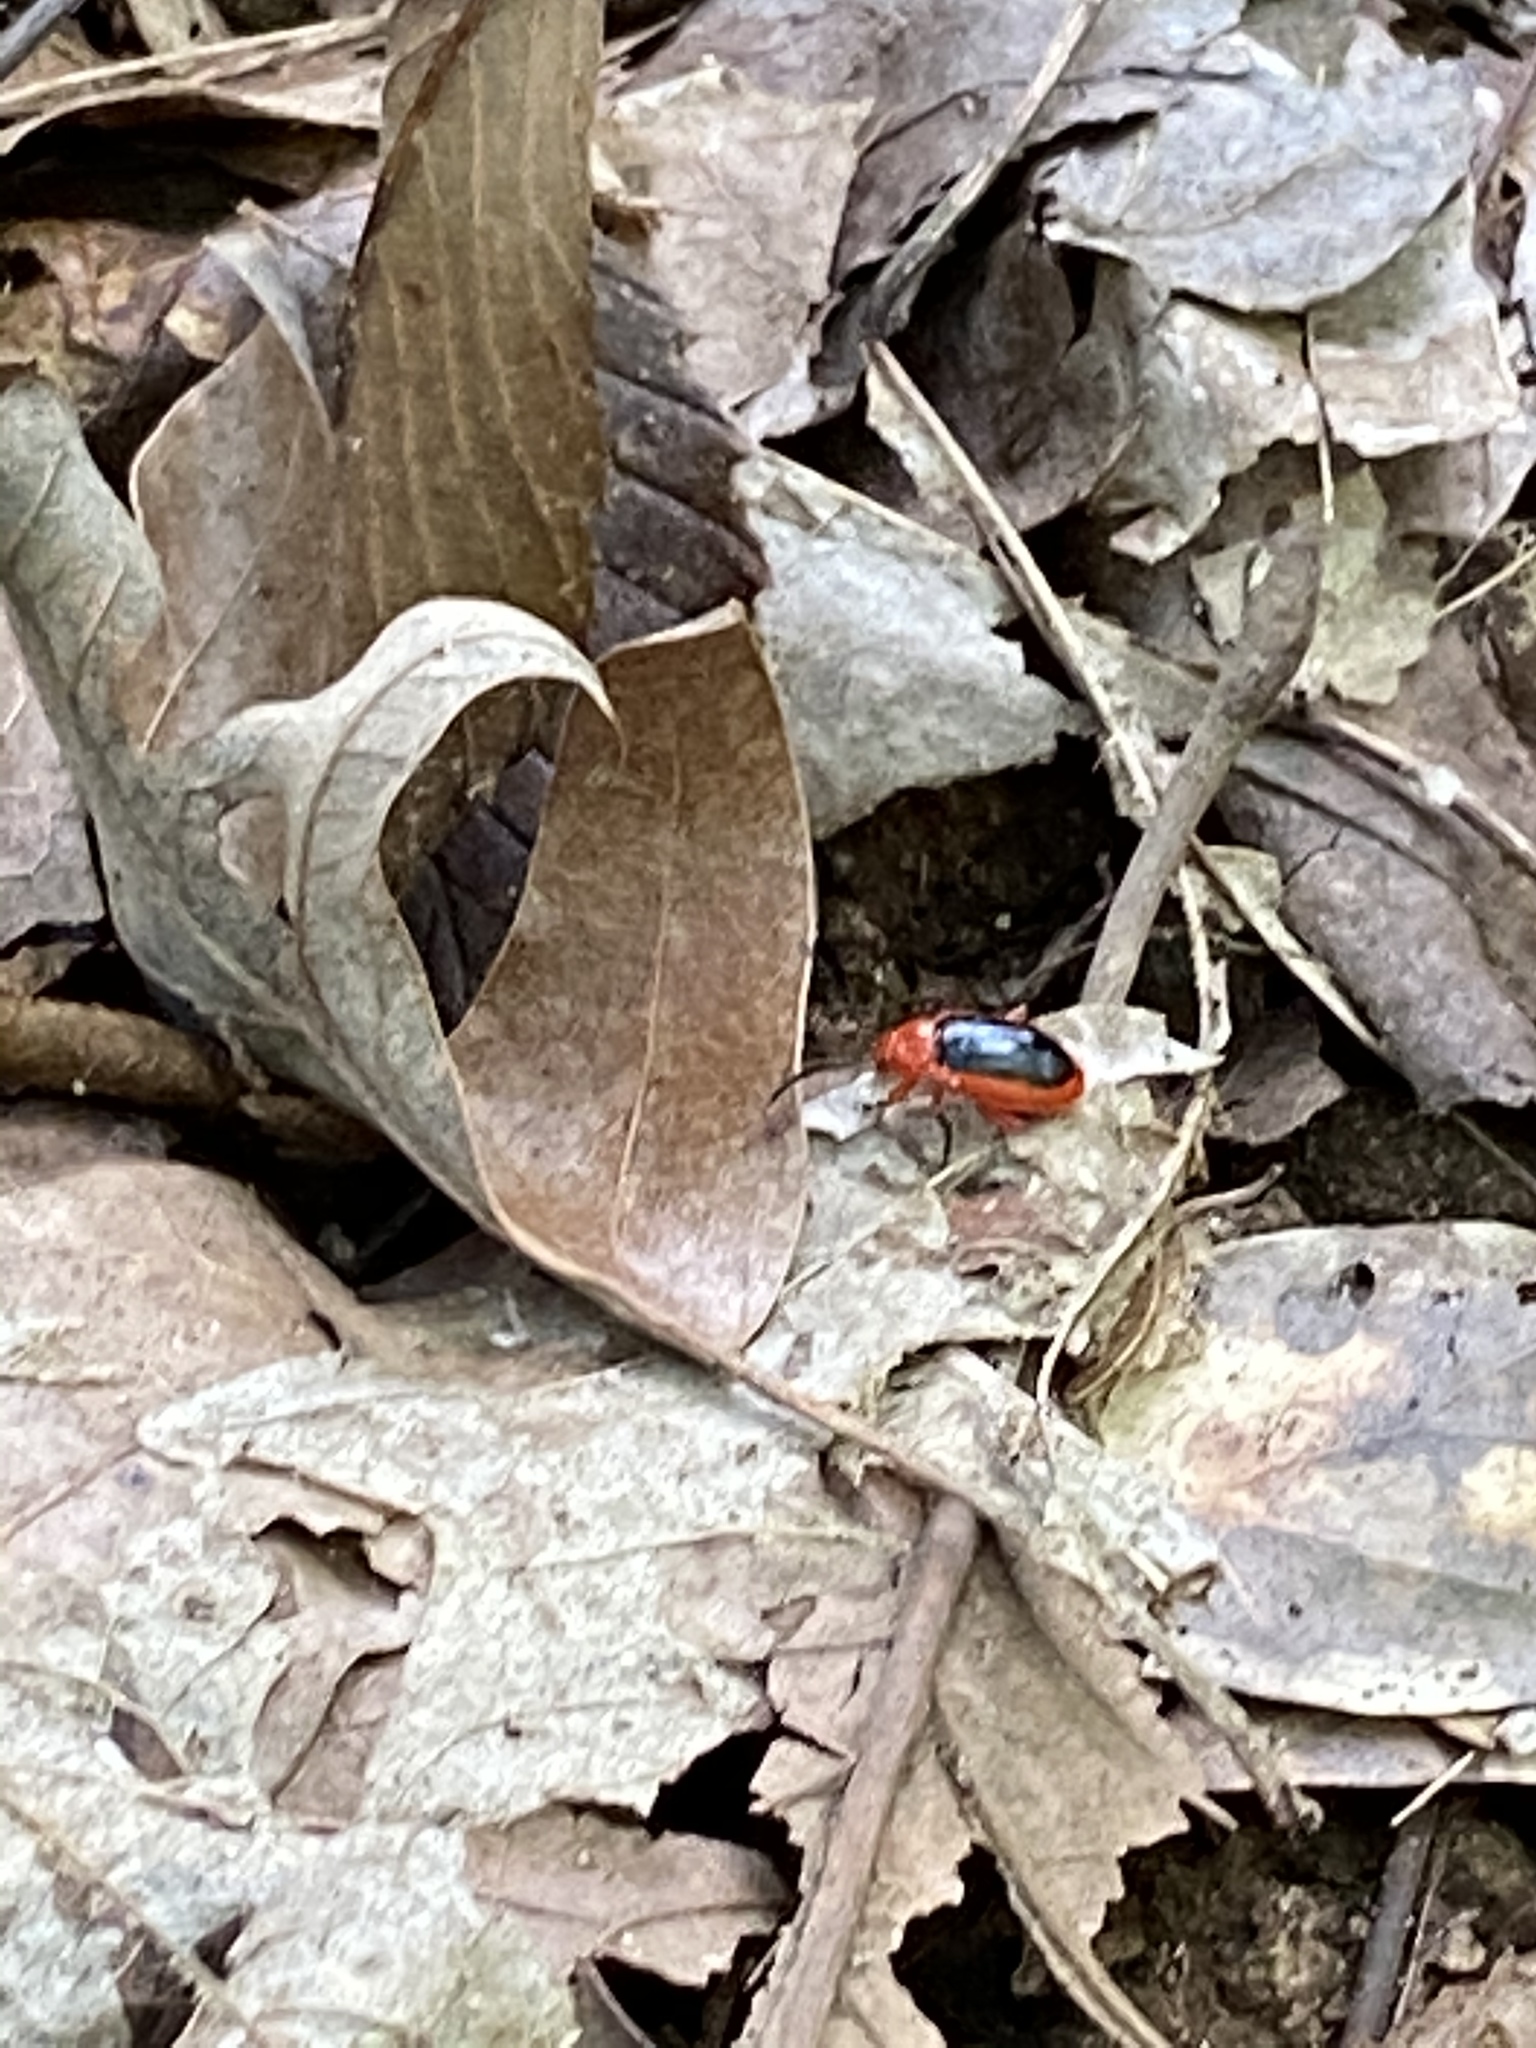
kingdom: Animalia
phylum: Arthropoda
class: Insecta
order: Coleoptera
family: Chrysomelidae
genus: Disonycha
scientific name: Disonycha discoidea
